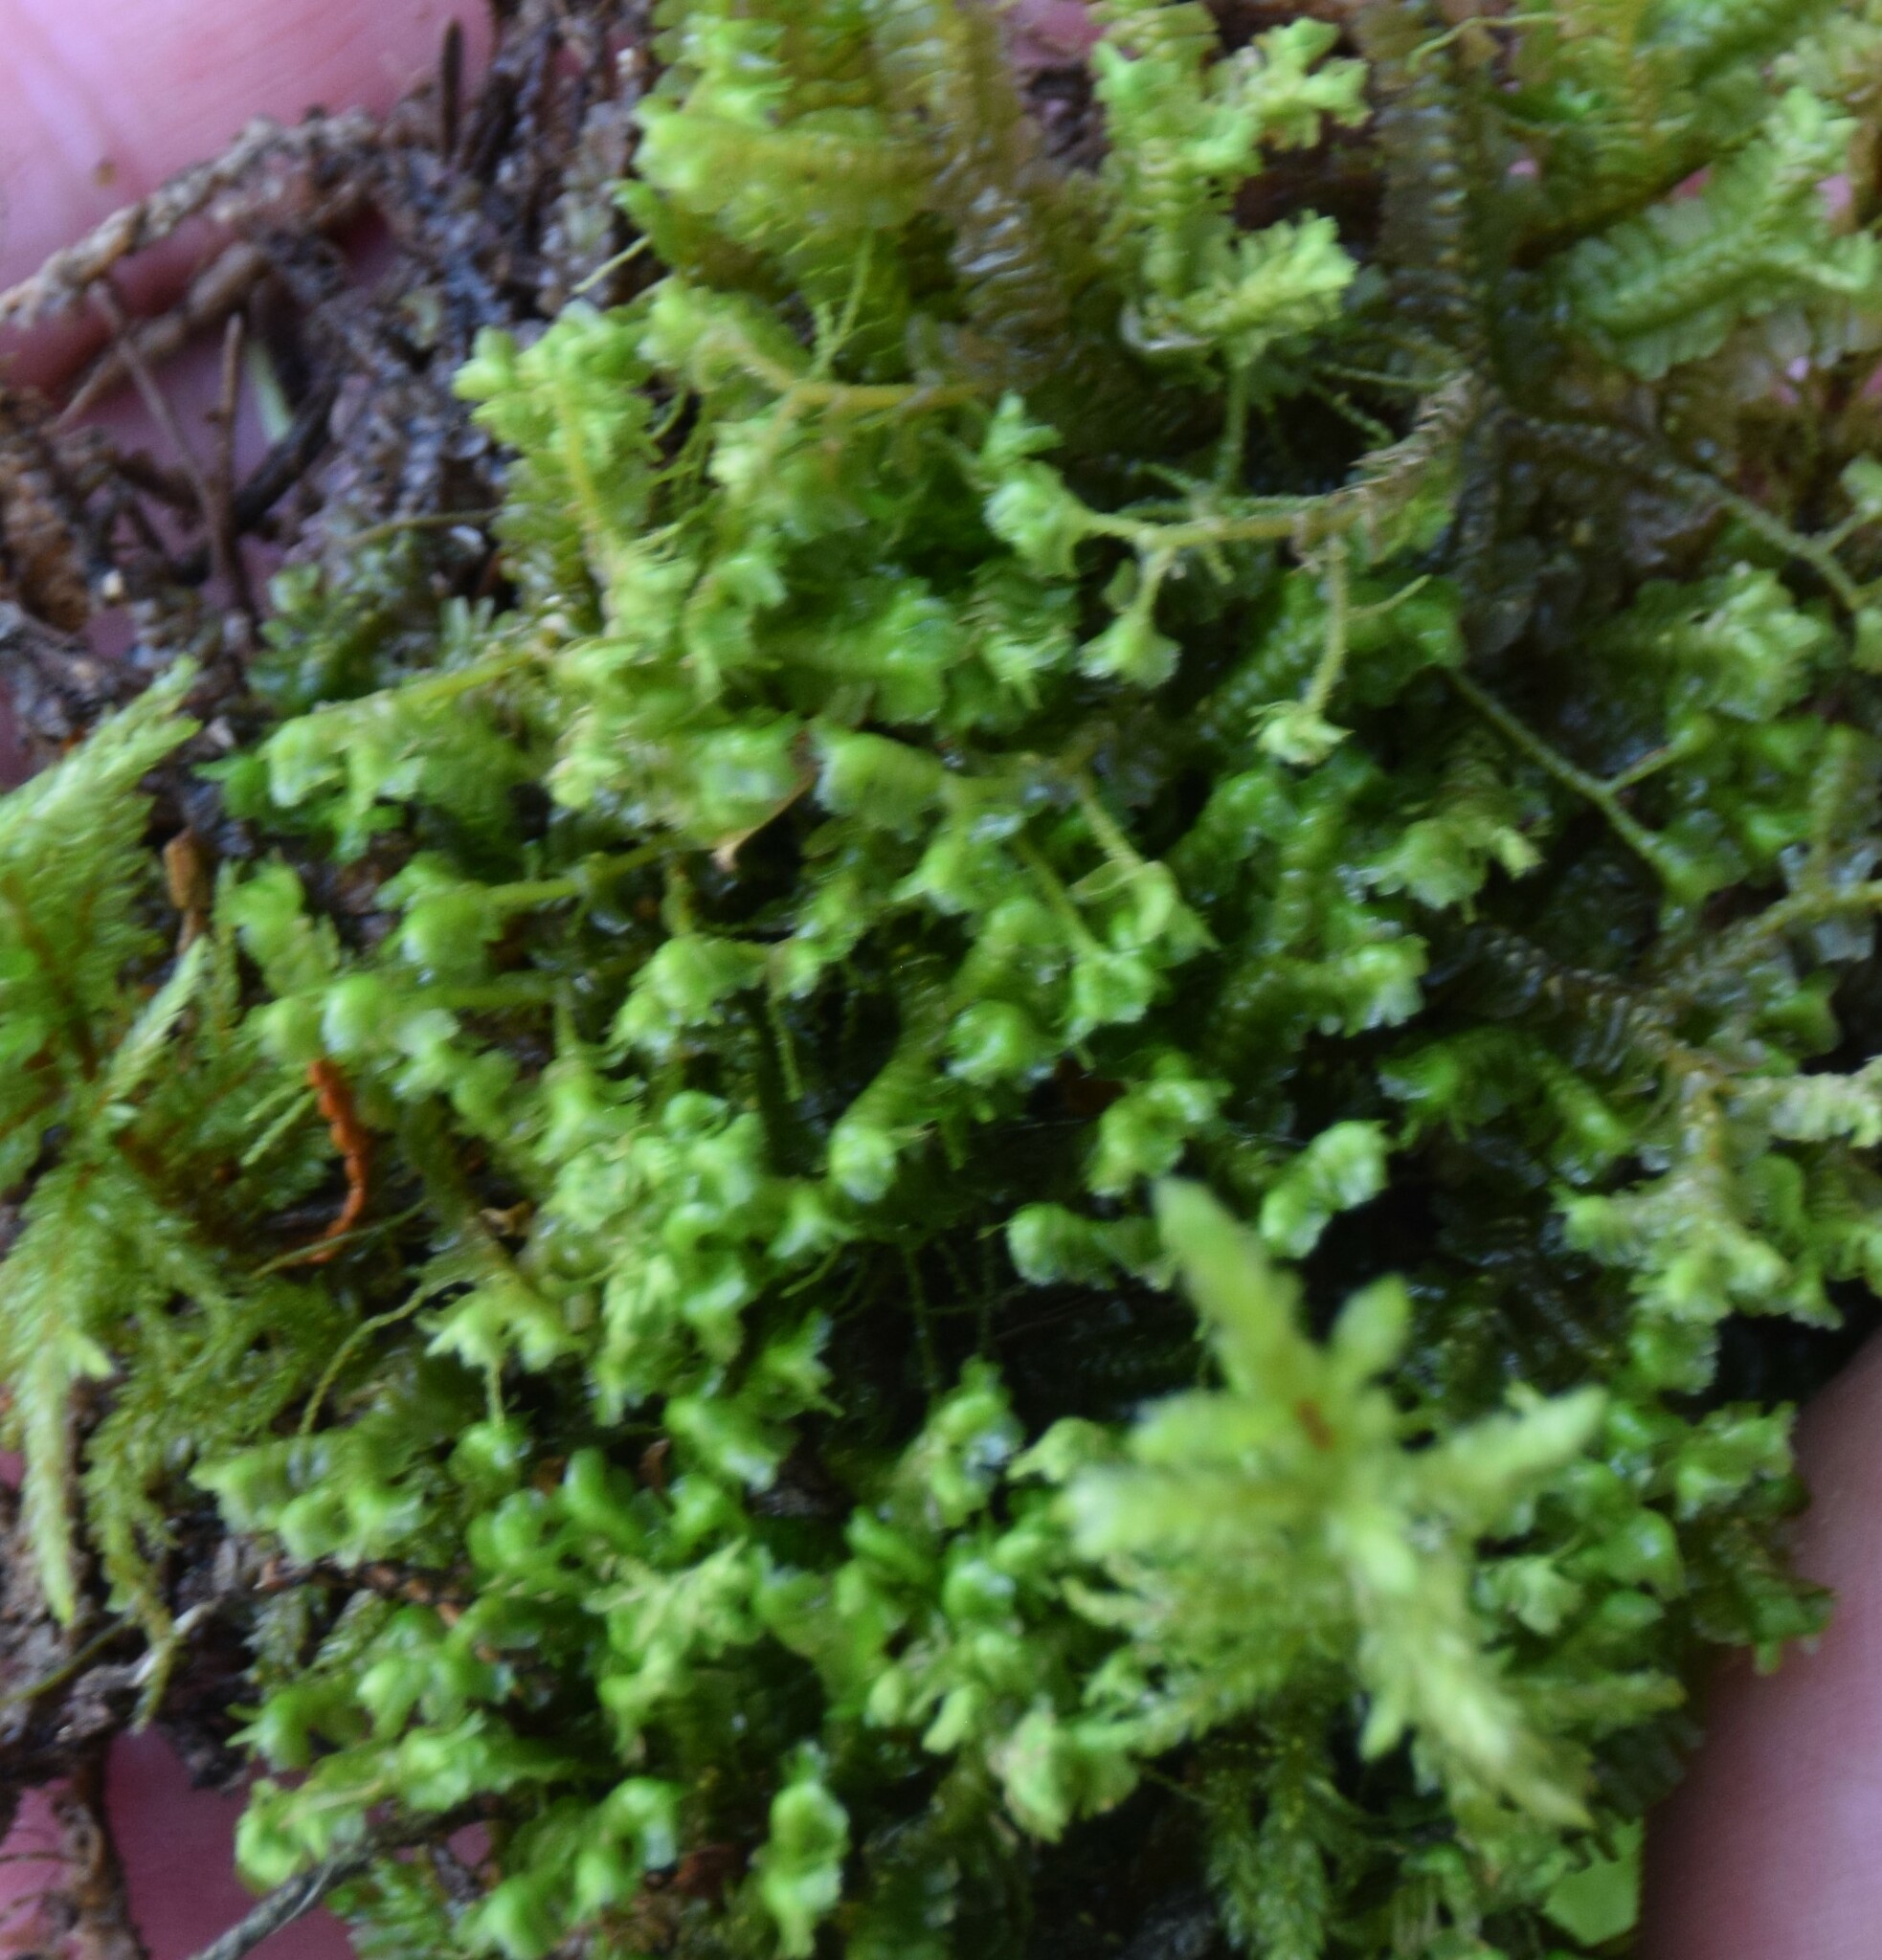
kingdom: Plantae
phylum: Marchantiophyta
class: Jungermanniopsida
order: Jungermanniales
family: Lepidoziaceae
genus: Bazzania
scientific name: Bazzania trilobata
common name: Three-lobed whipwort
